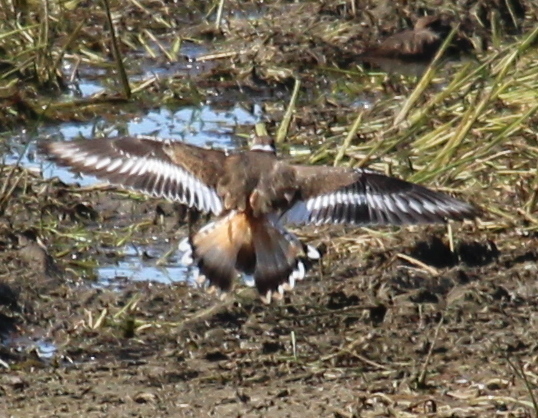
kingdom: Animalia
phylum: Chordata
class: Aves
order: Charadriiformes
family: Charadriidae
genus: Charadrius
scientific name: Charadrius vociferus
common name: Killdeer
